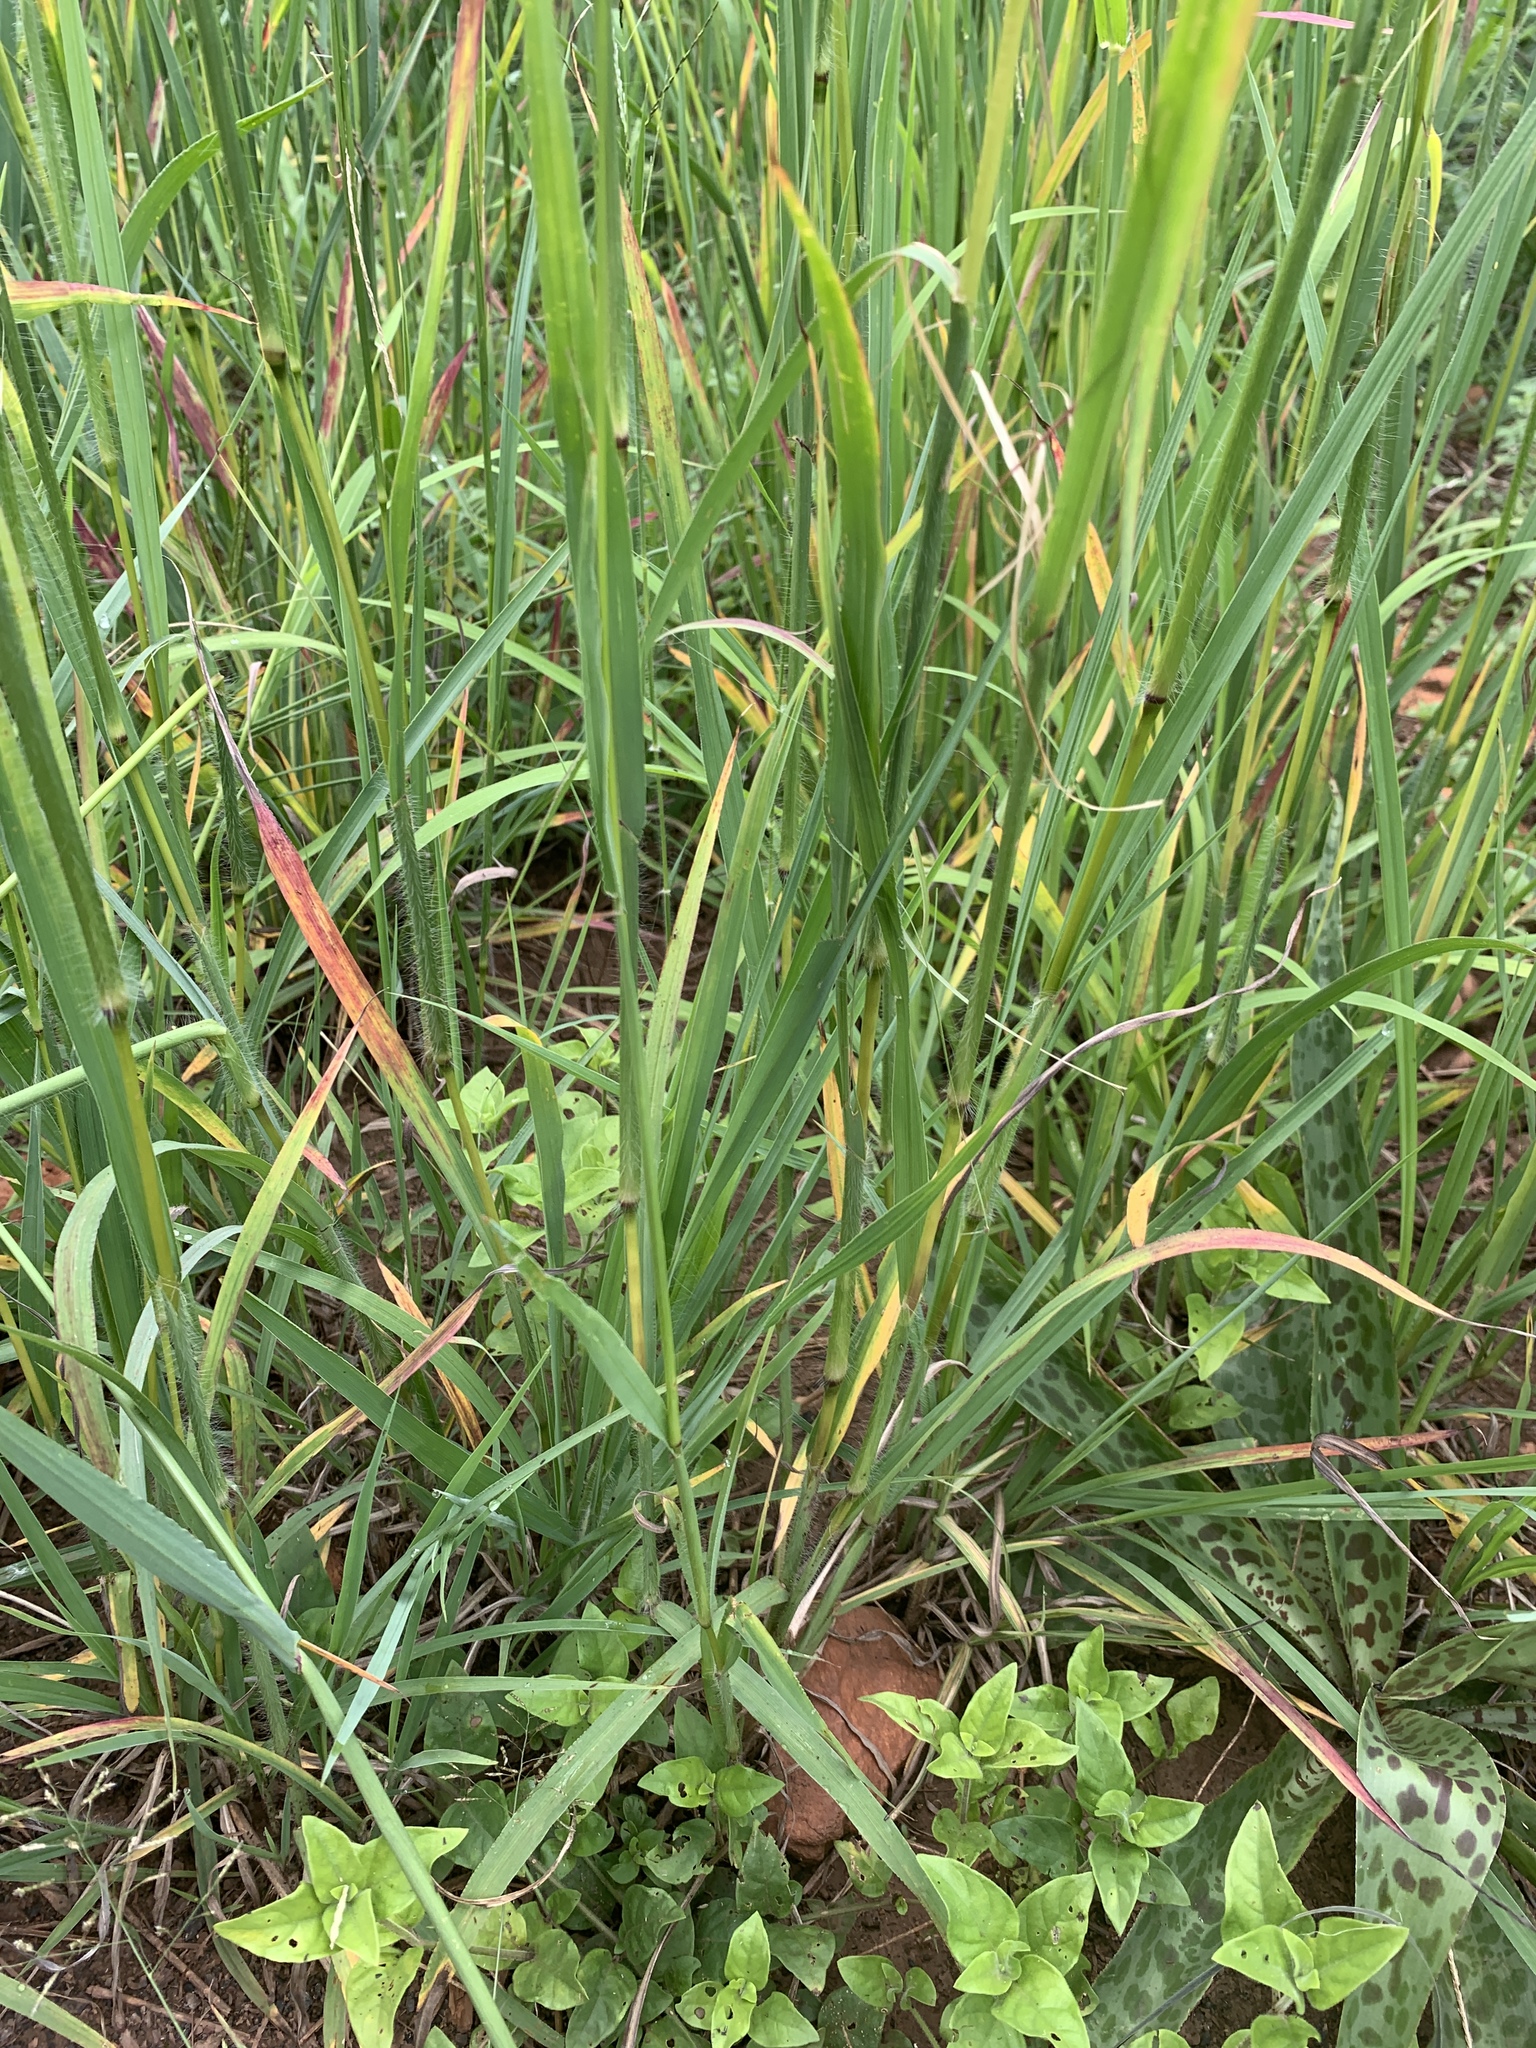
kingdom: Plantae
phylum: Tracheophyta
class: Liliopsida
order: Poales
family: Poaceae
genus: Digitaria
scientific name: Digitaria eriantha
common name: Digitgrass
